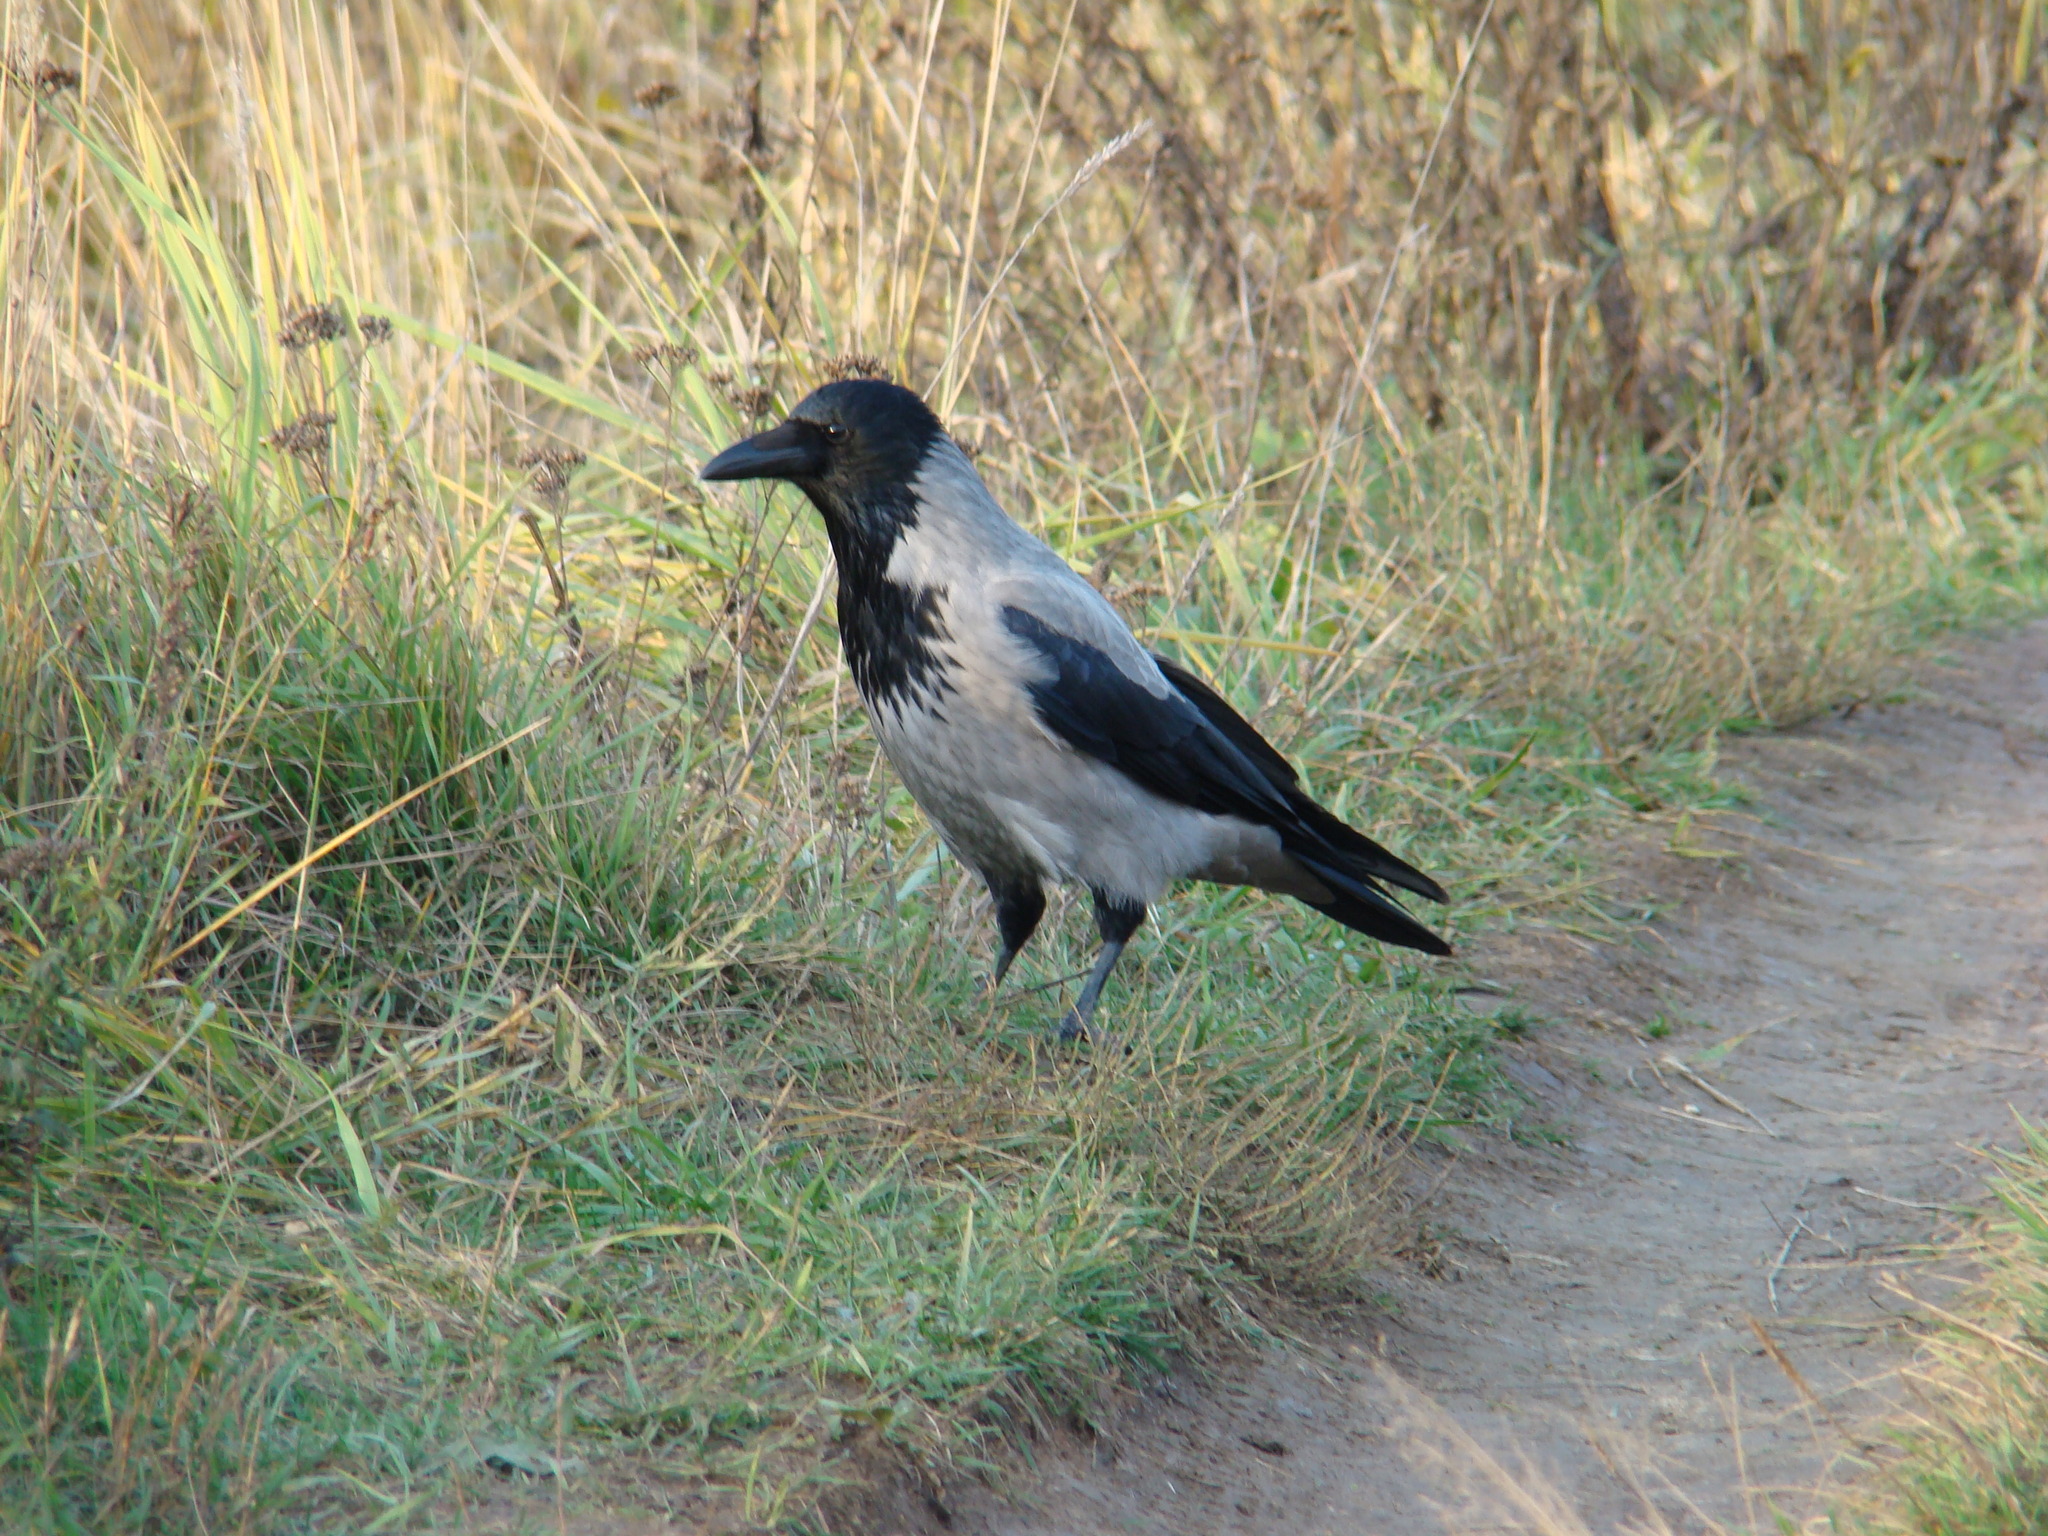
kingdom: Animalia
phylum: Chordata
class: Aves
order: Passeriformes
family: Corvidae
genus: Corvus
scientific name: Corvus cornix
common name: Hooded crow
